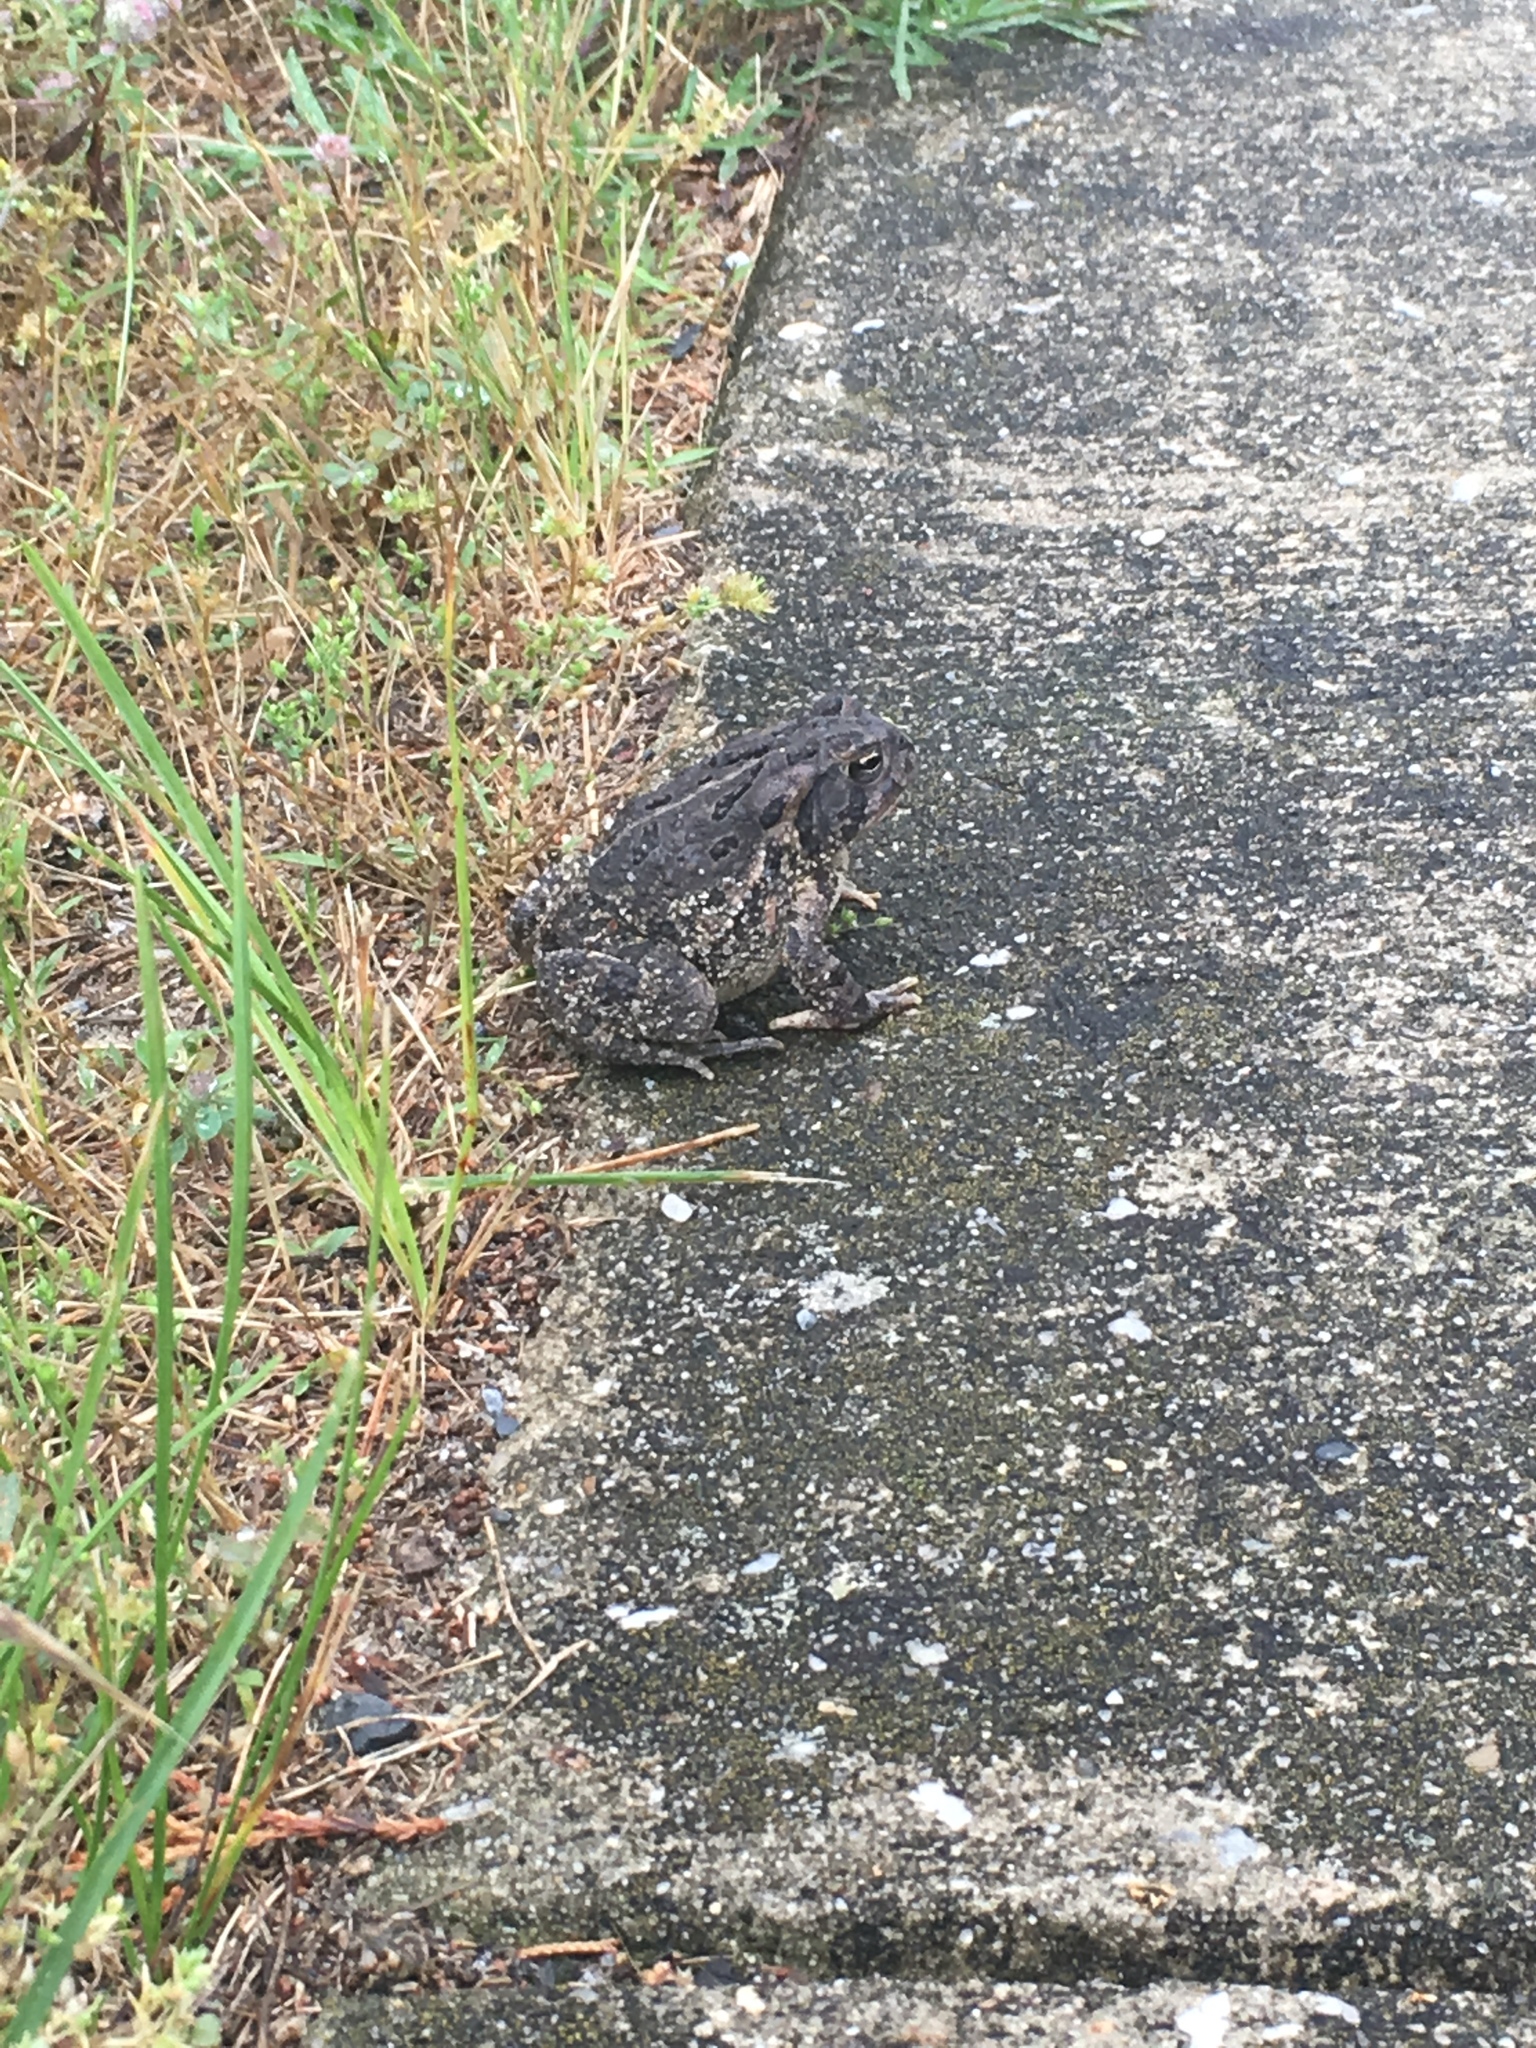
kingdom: Animalia
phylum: Chordata
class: Amphibia
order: Anura
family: Bufonidae
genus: Anaxyrus
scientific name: Anaxyrus fowleri
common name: Fowler's toad
